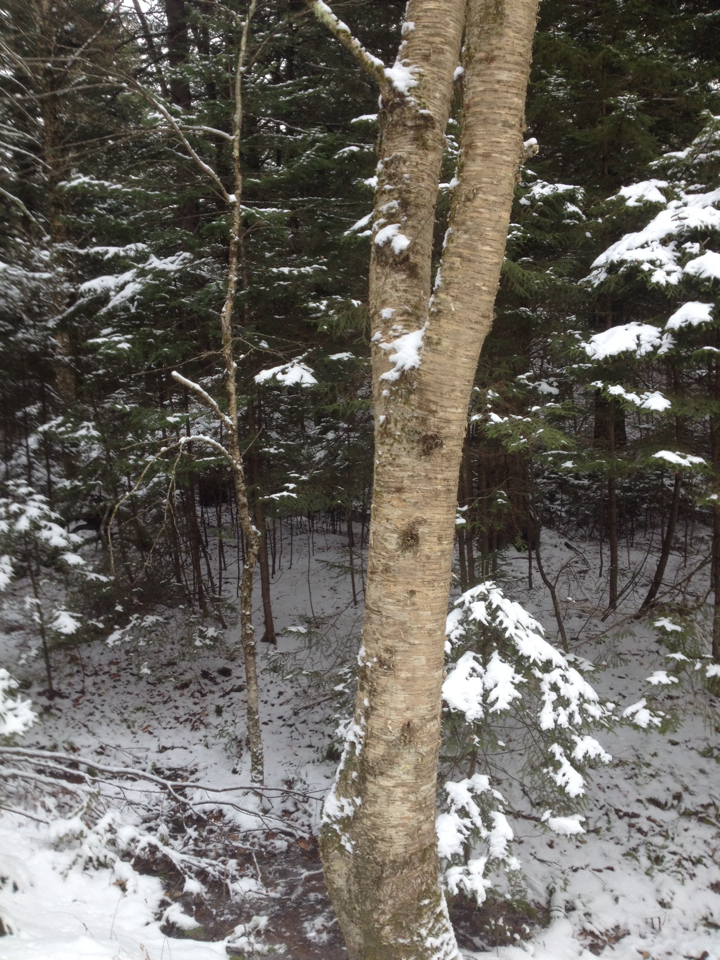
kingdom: Plantae
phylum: Tracheophyta
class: Magnoliopsida
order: Fagales
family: Betulaceae
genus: Betula
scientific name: Betula alleghaniensis
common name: Yellow birch
